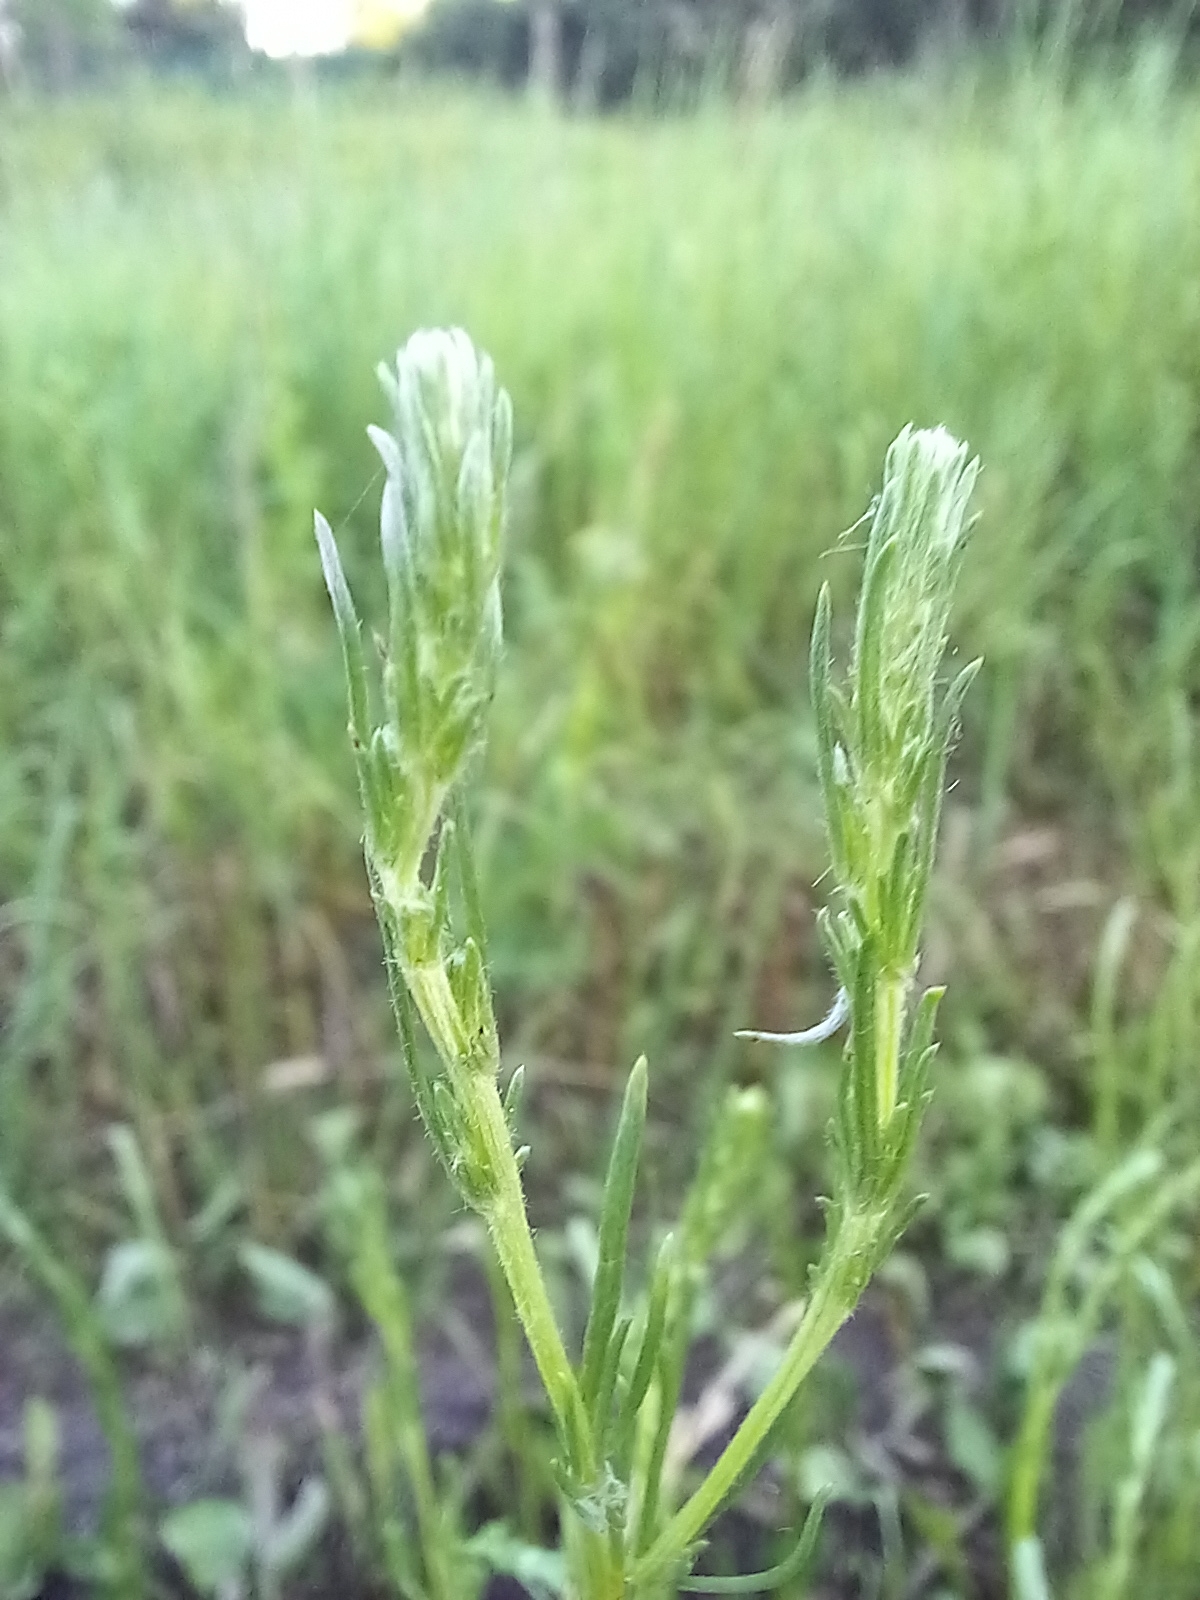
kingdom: Plantae
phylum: Tracheophyta
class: Magnoliopsida
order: Asterales
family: Asteraceae
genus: Artemisia
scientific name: Artemisia campestris
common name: Field wormwood
